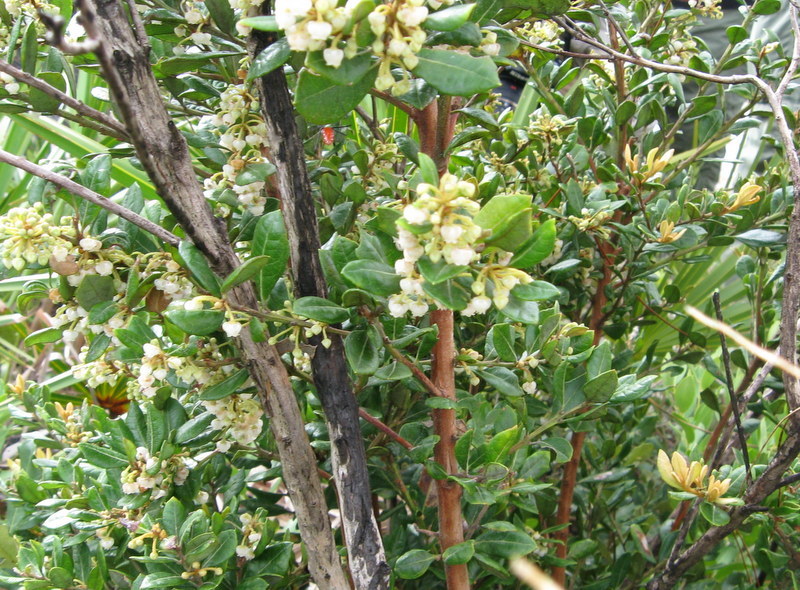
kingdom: Plantae
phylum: Tracheophyta
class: Magnoliopsida
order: Ericales
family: Ericaceae
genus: Lyonia
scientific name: Lyonia ferruginea
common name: Rusty lyonia
